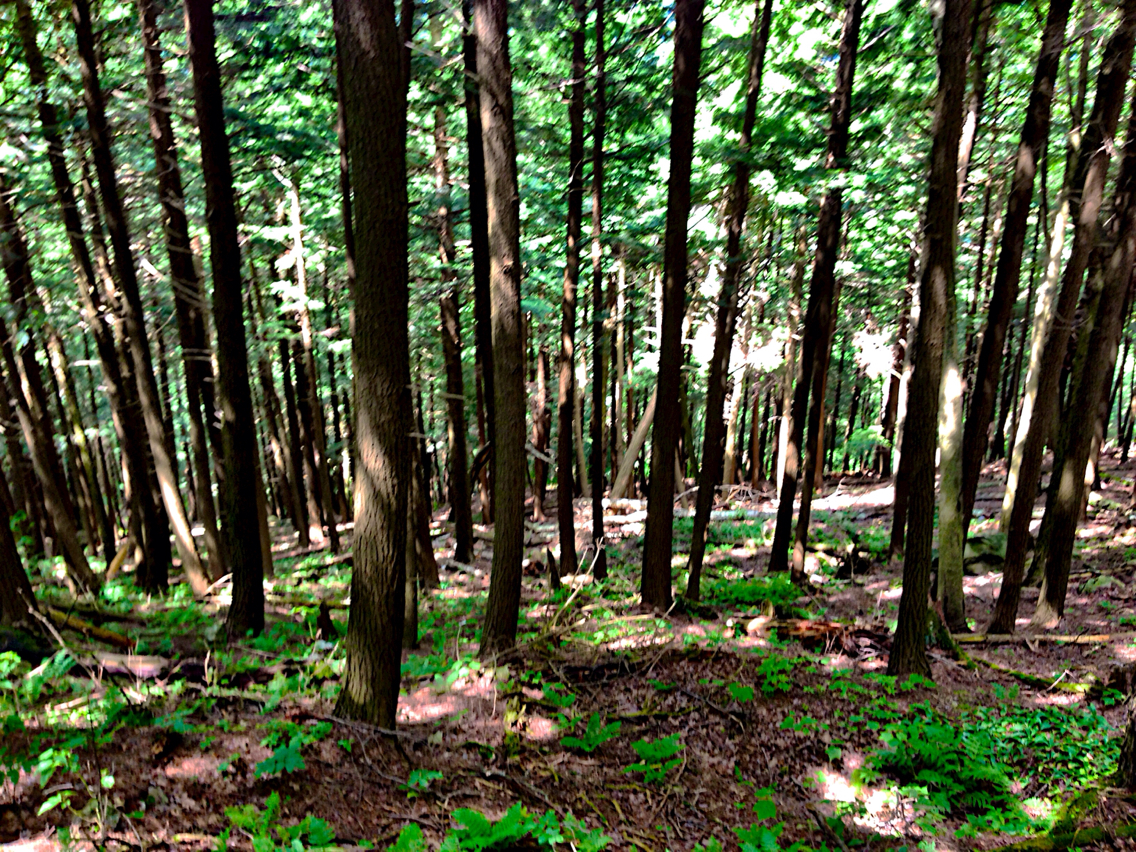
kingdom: Plantae
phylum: Tracheophyta
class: Pinopsida
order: Pinales
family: Pinaceae
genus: Tsuga
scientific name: Tsuga canadensis
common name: Eastern hemlock
